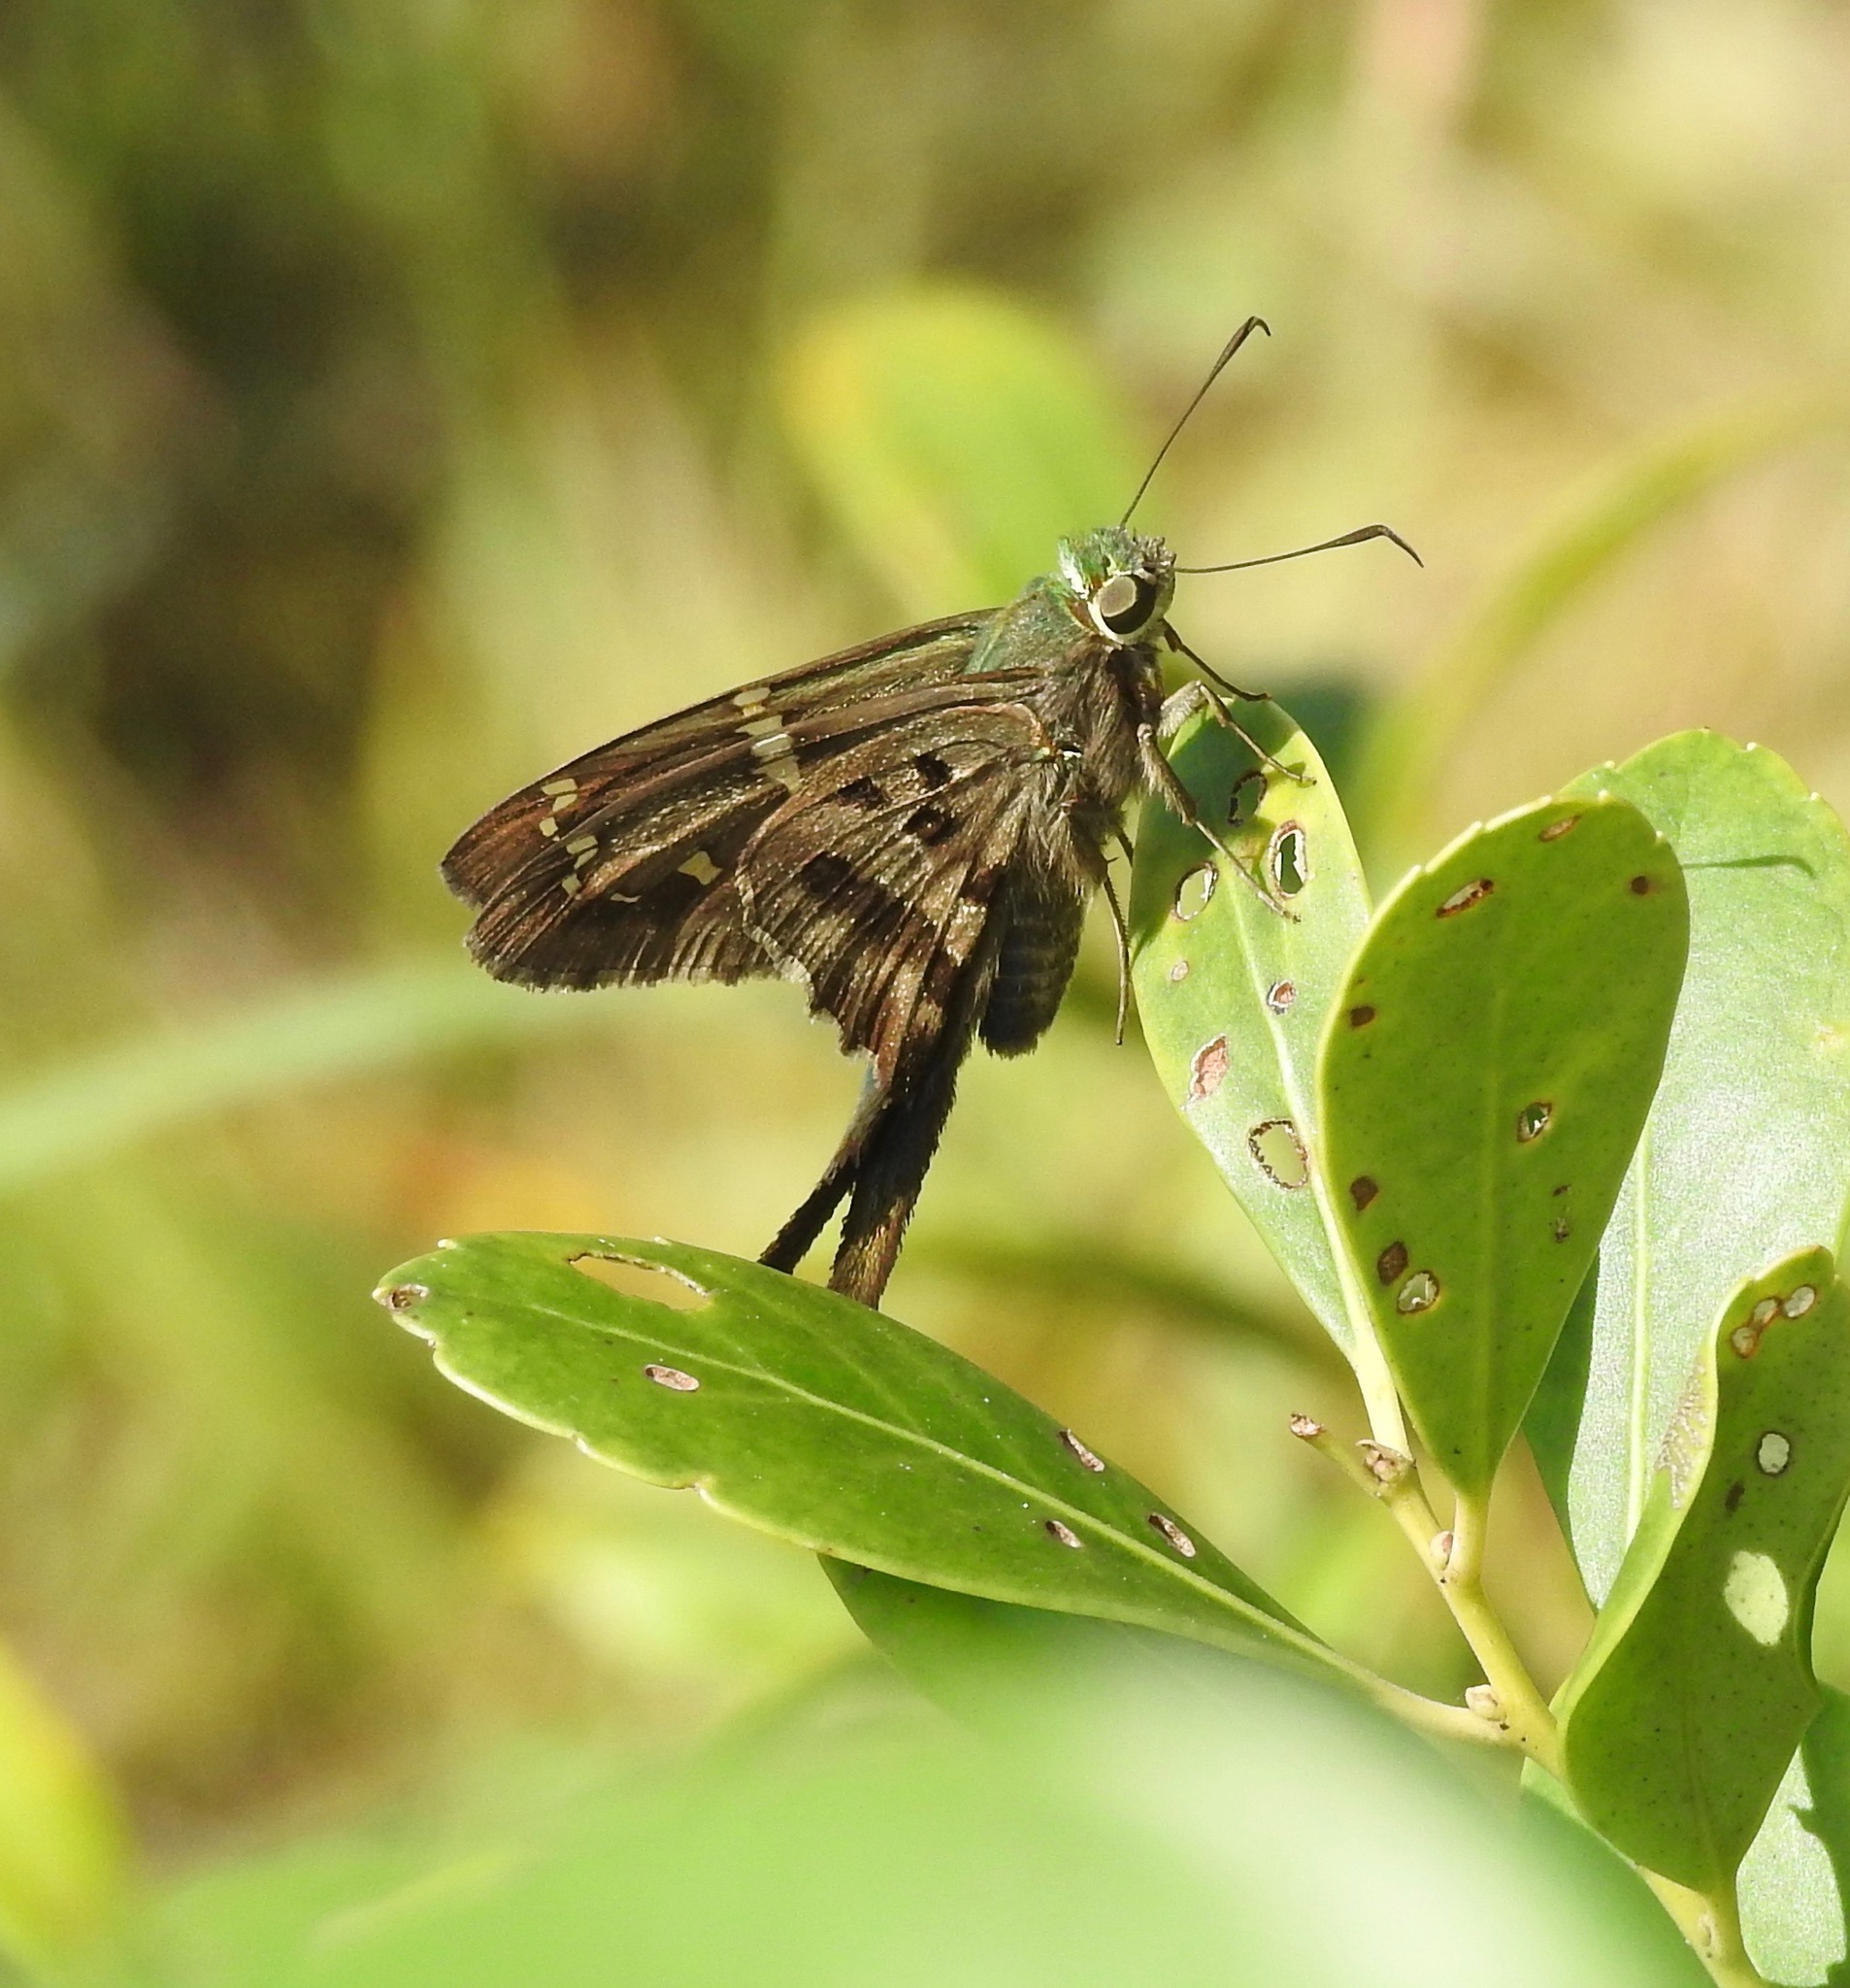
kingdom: Animalia
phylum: Arthropoda
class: Insecta
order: Lepidoptera
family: Hesperiidae
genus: Urbanus
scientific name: Urbanus proteus
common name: Long-tailed skipper
